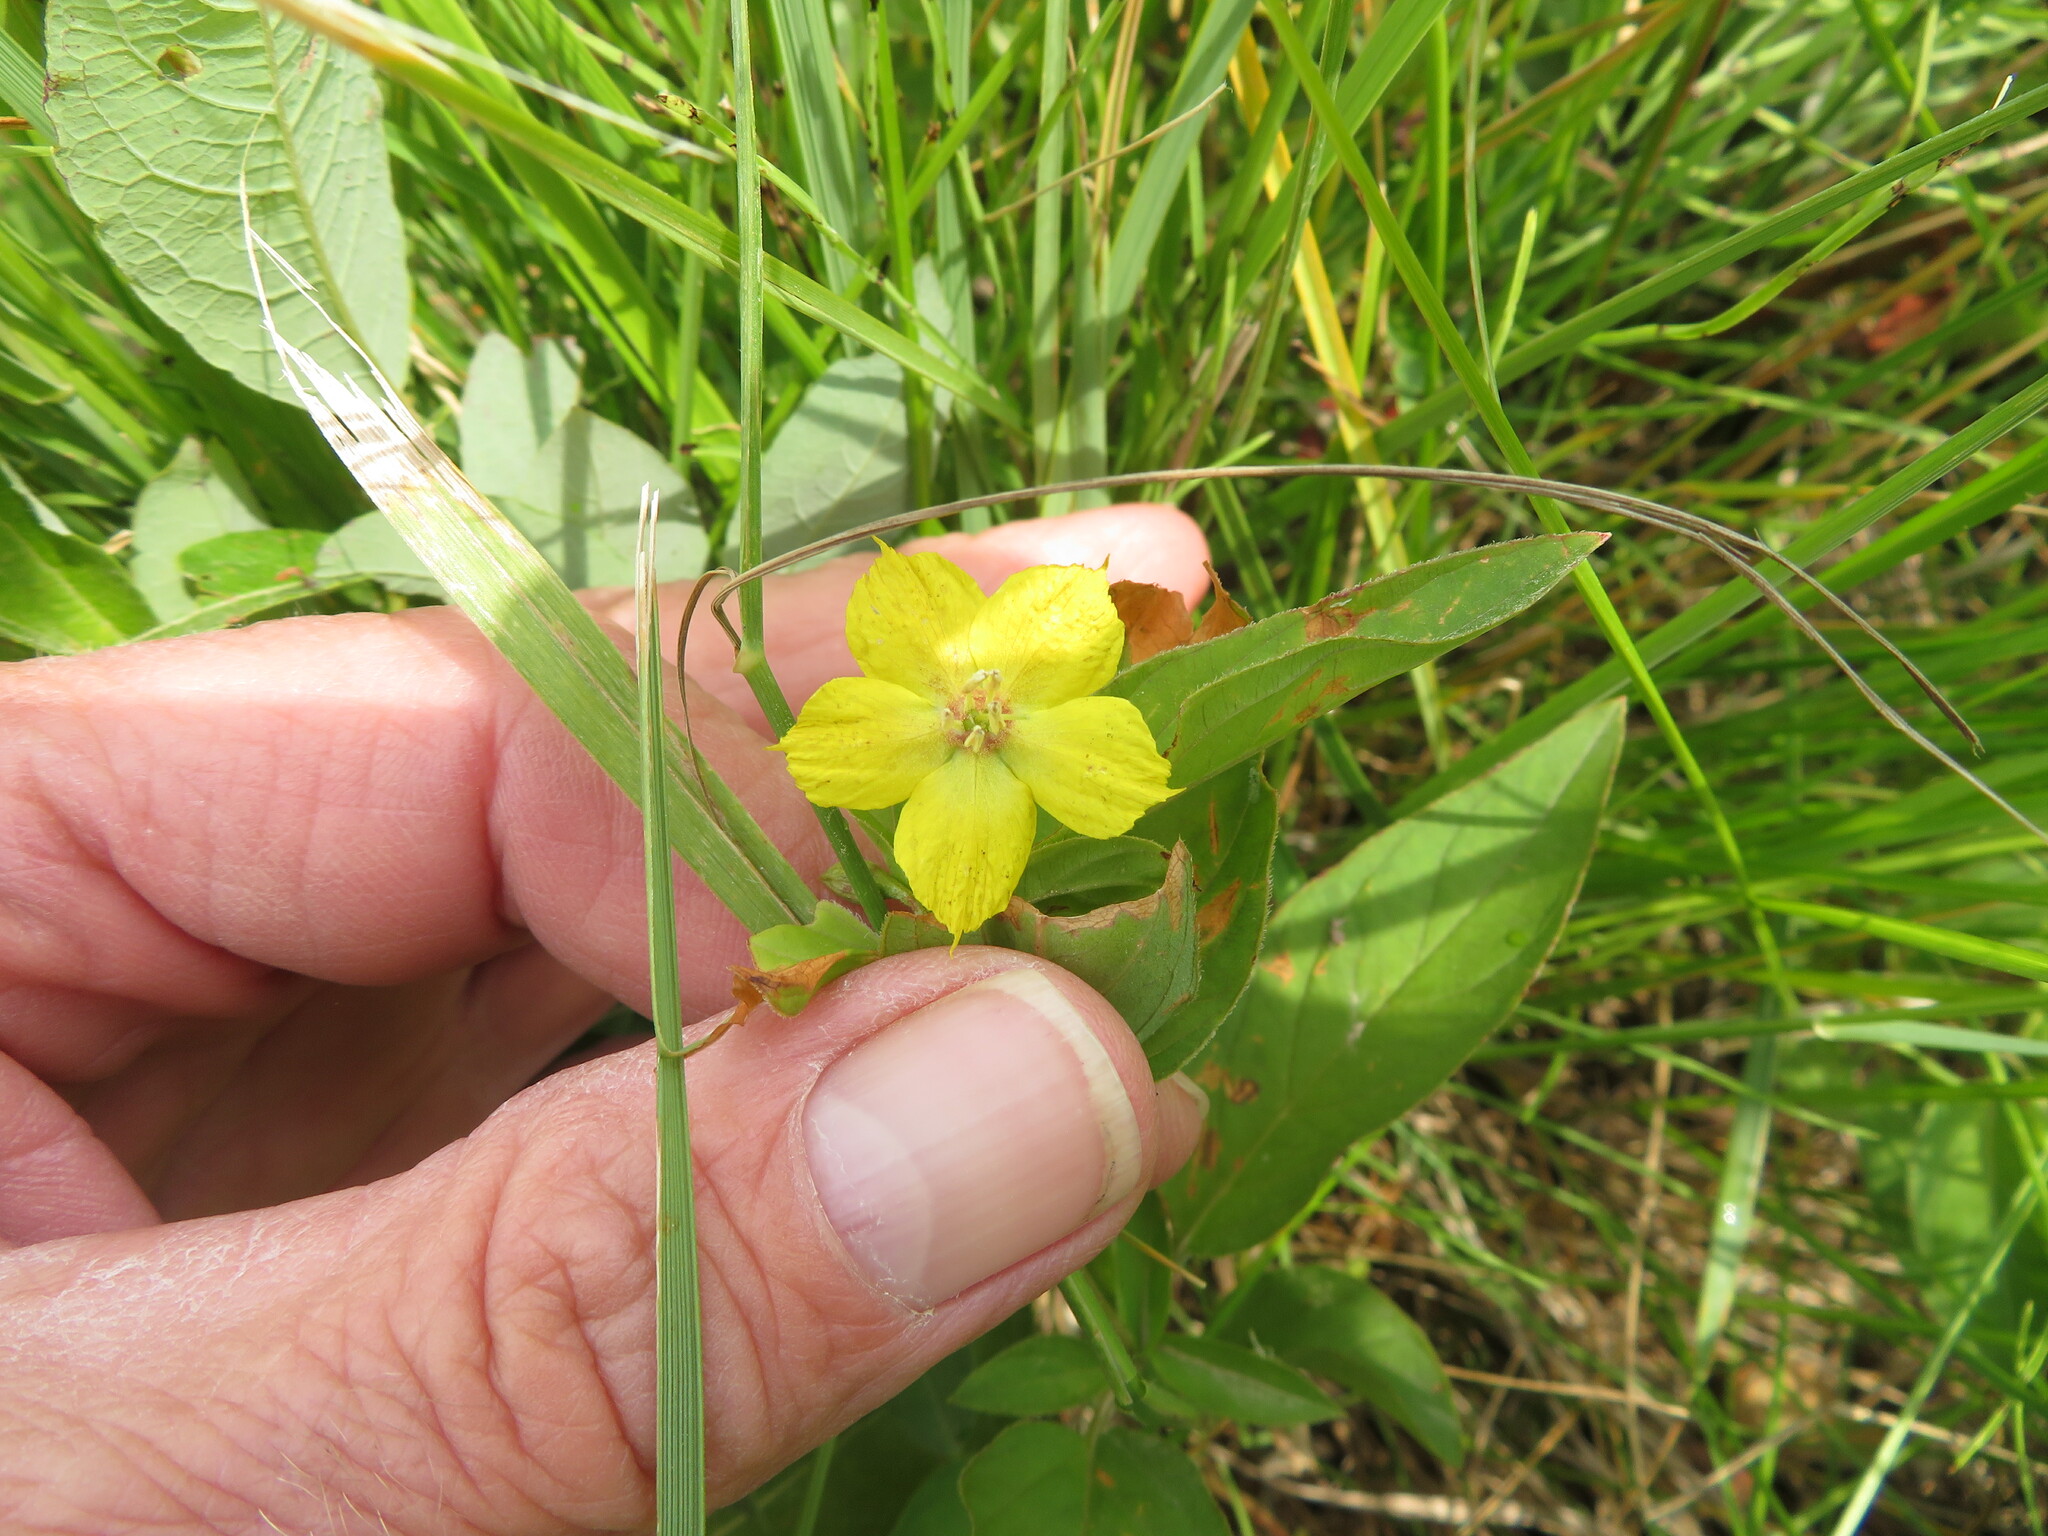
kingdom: Plantae
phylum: Tracheophyta
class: Magnoliopsida
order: Ericales
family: Primulaceae
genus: Lysimachia
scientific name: Lysimachia ciliata
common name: Fringed loosestrife
